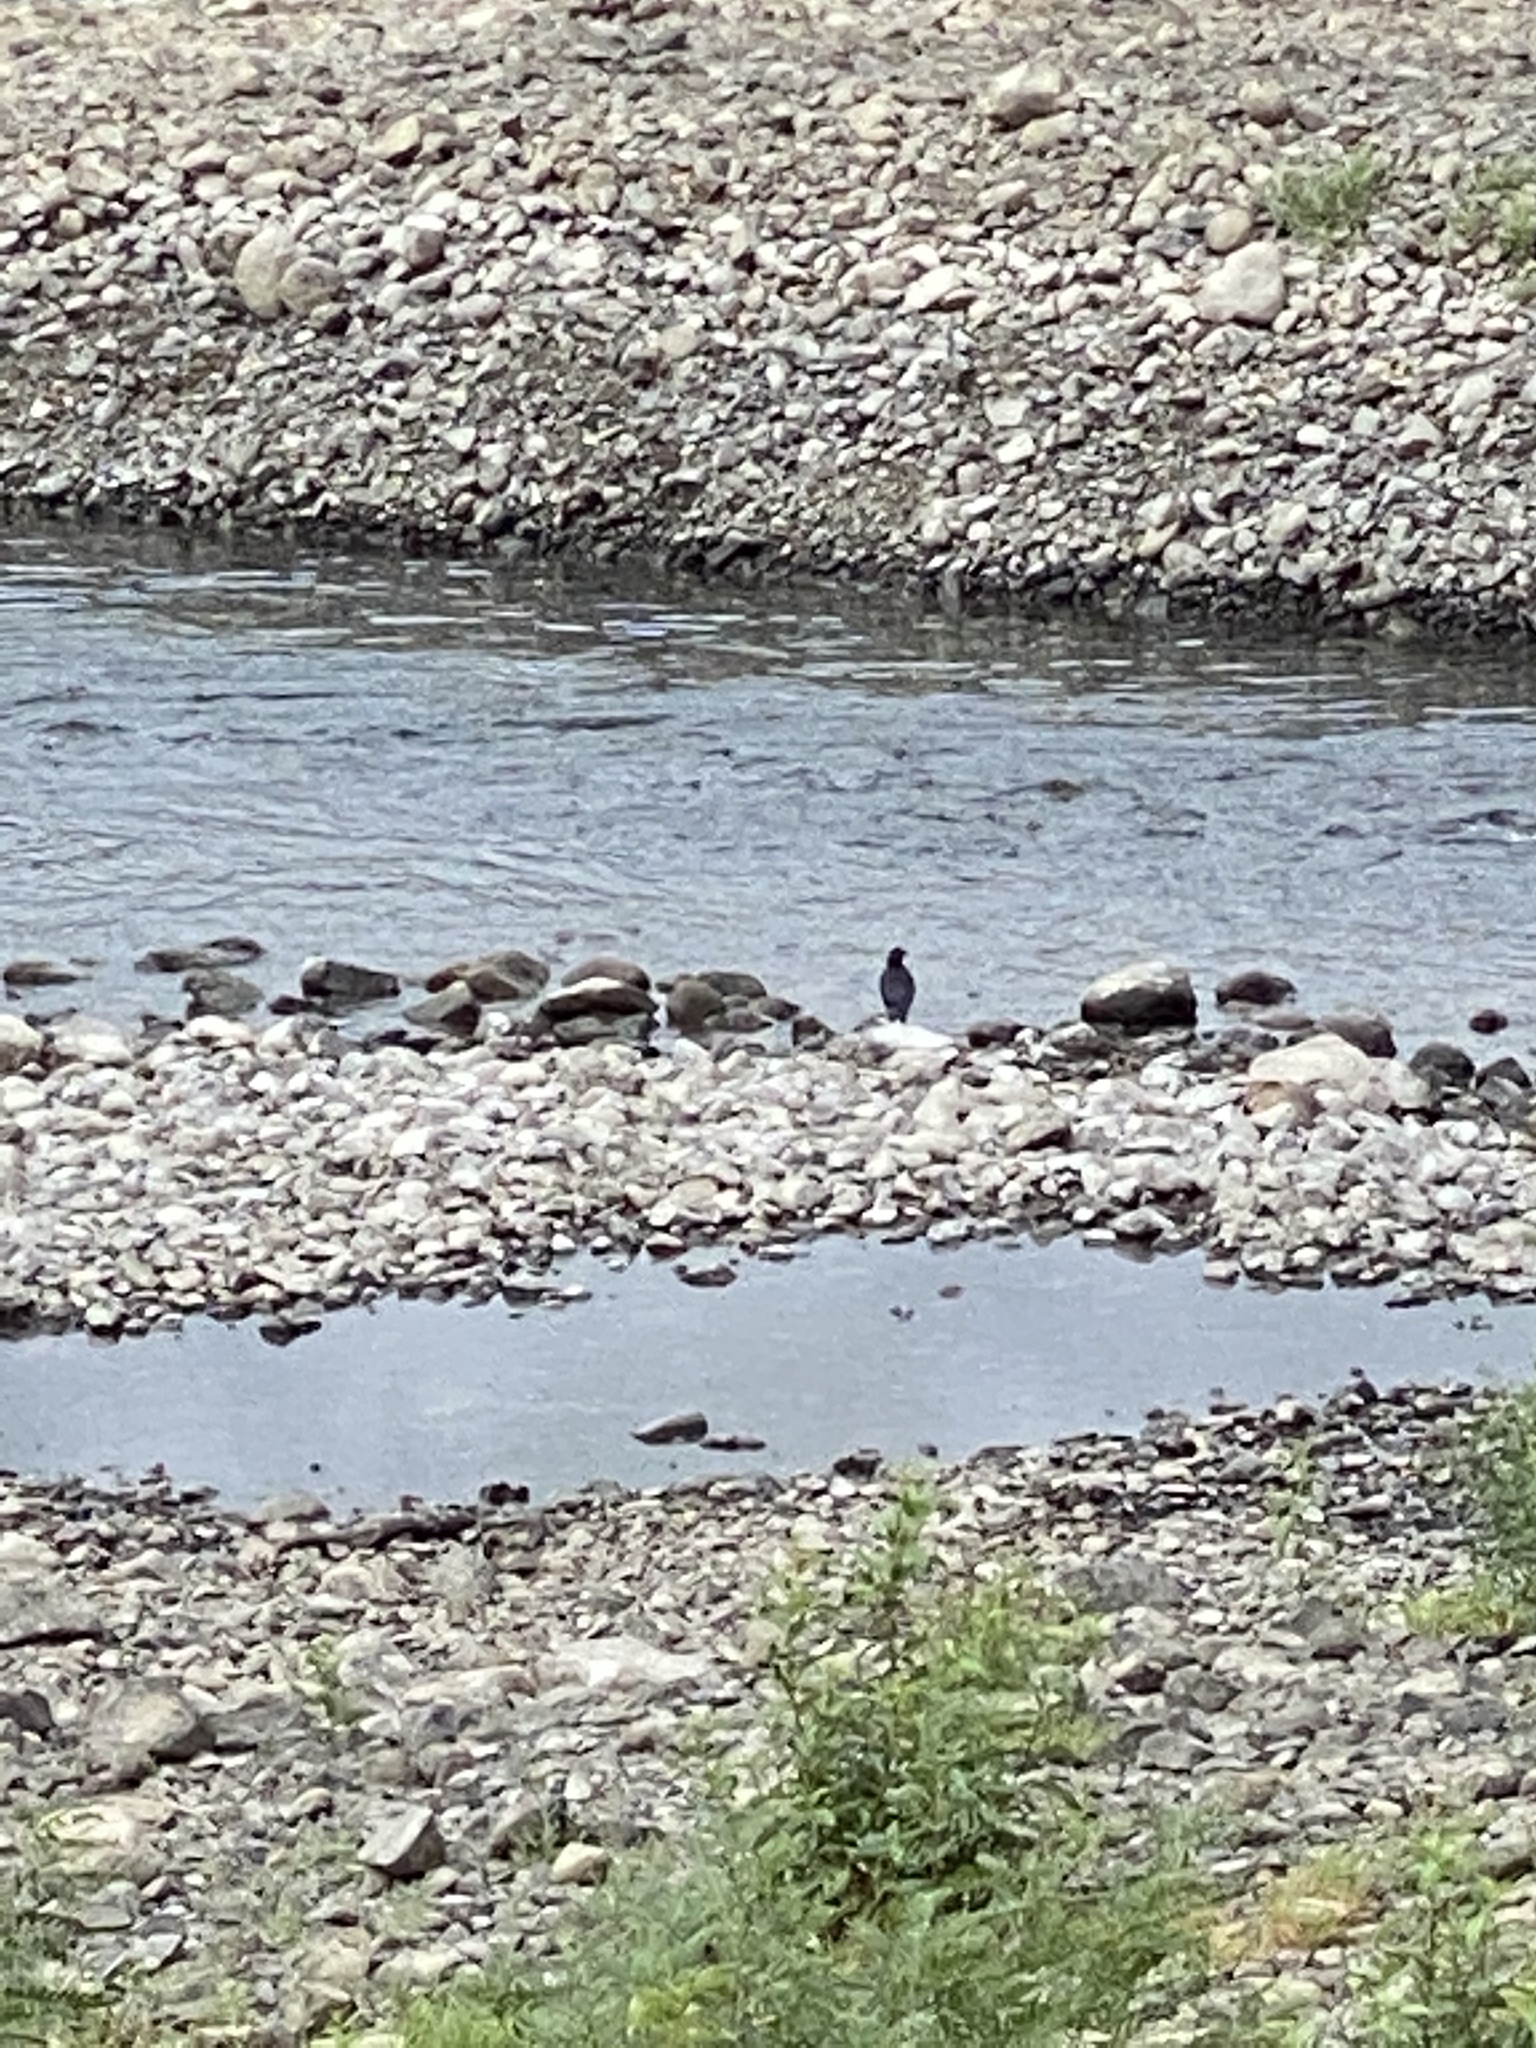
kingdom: Animalia
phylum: Chordata
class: Aves
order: Passeriformes
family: Corvidae
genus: Corvus
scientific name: Corvus brachyrhynchos
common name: American crow
